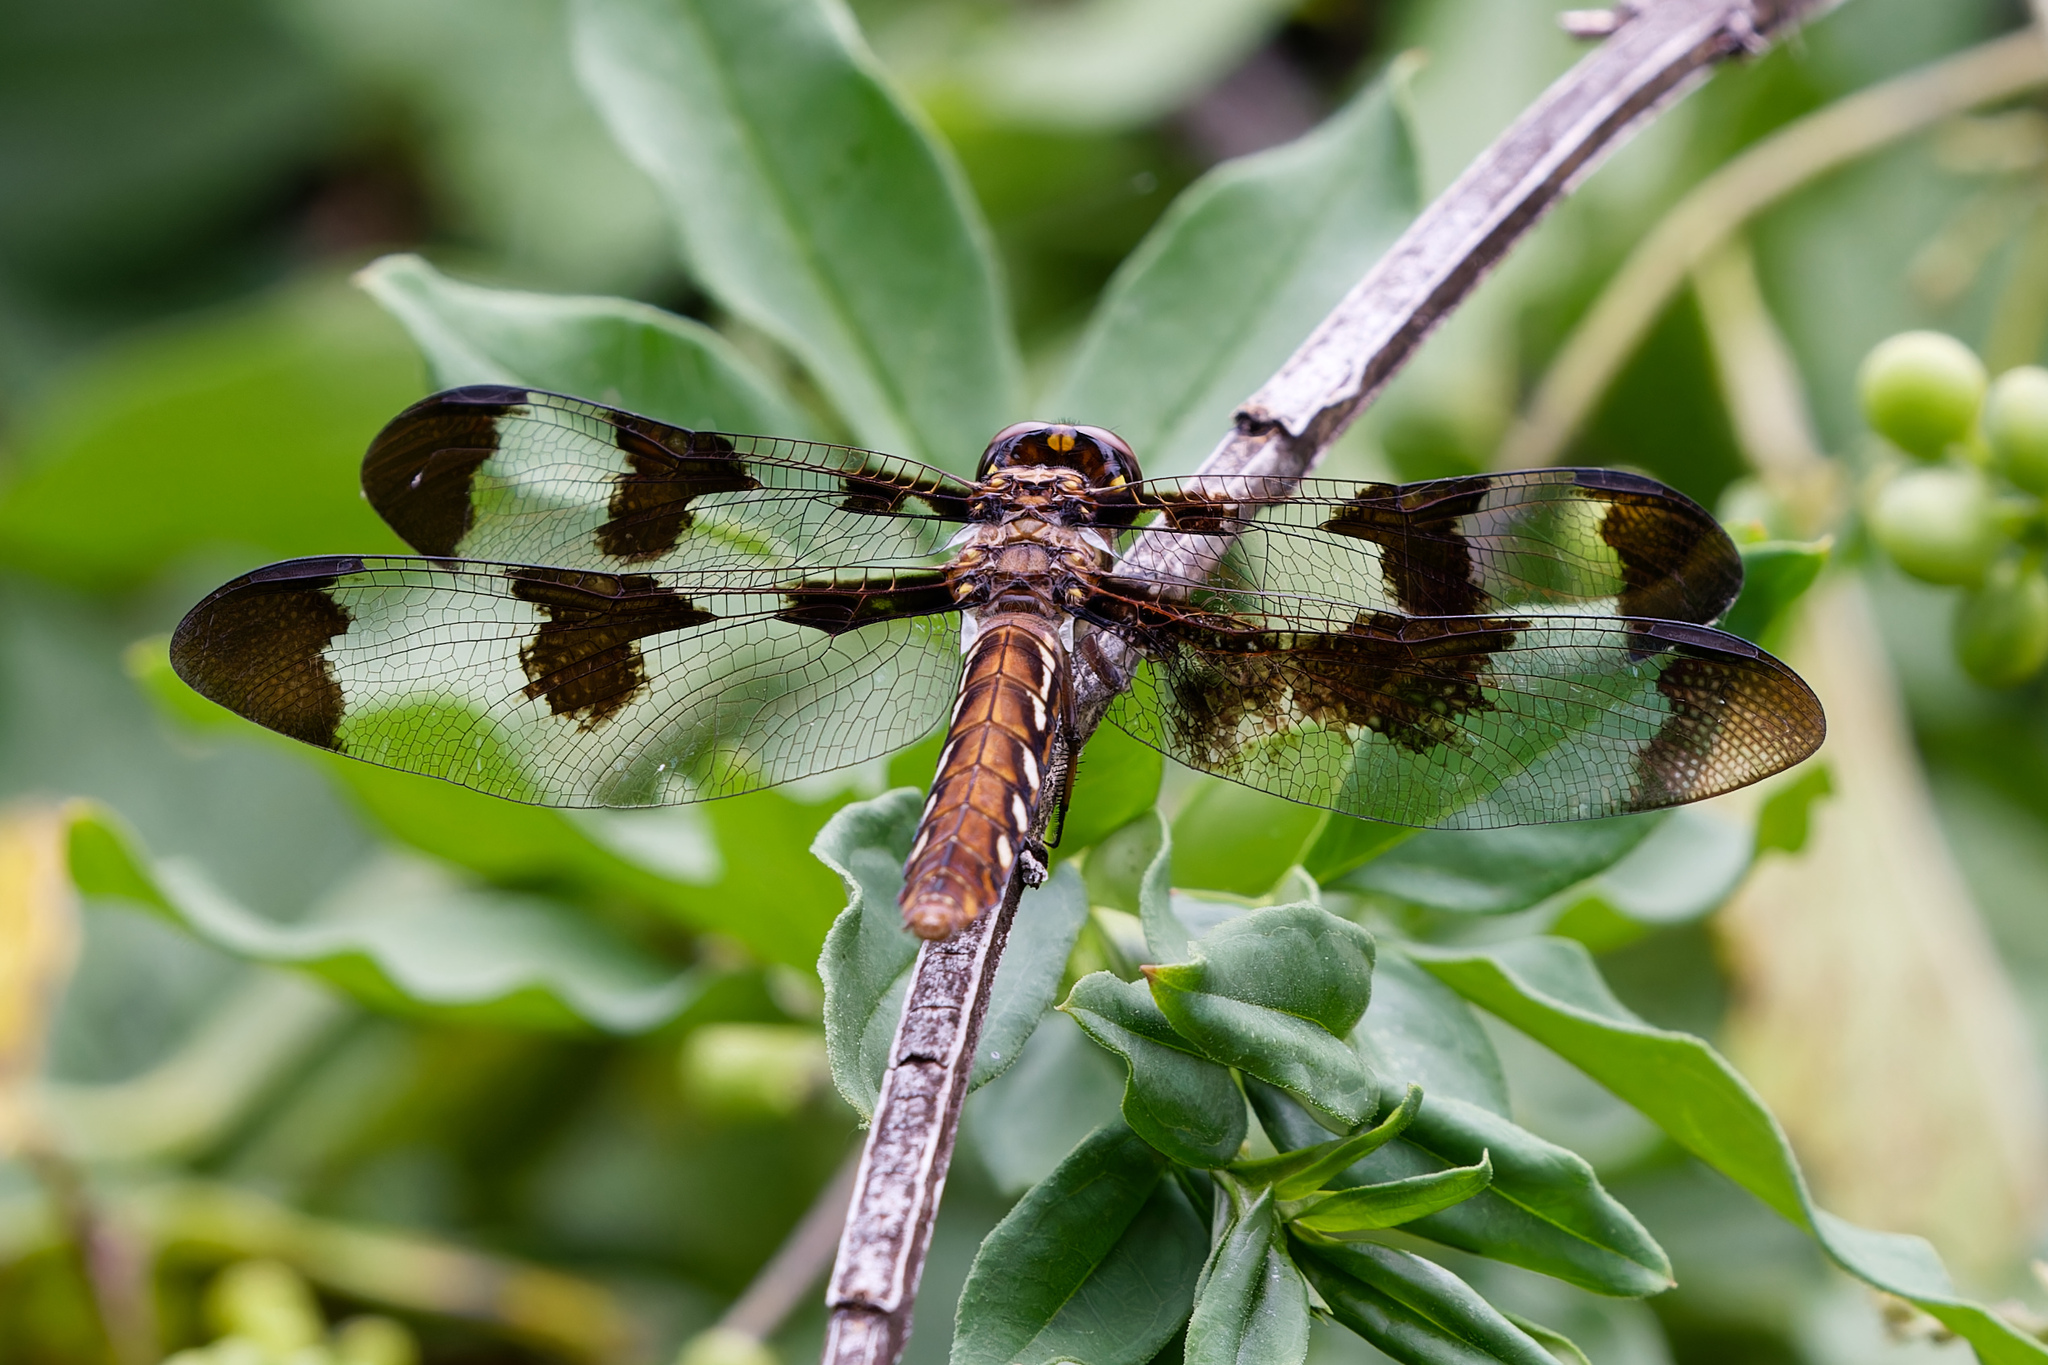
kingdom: Animalia
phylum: Arthropoda
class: Insecta
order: Odonata
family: Libellulidae
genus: Plathemis
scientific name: Plathemis lydia
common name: Common whitetail
